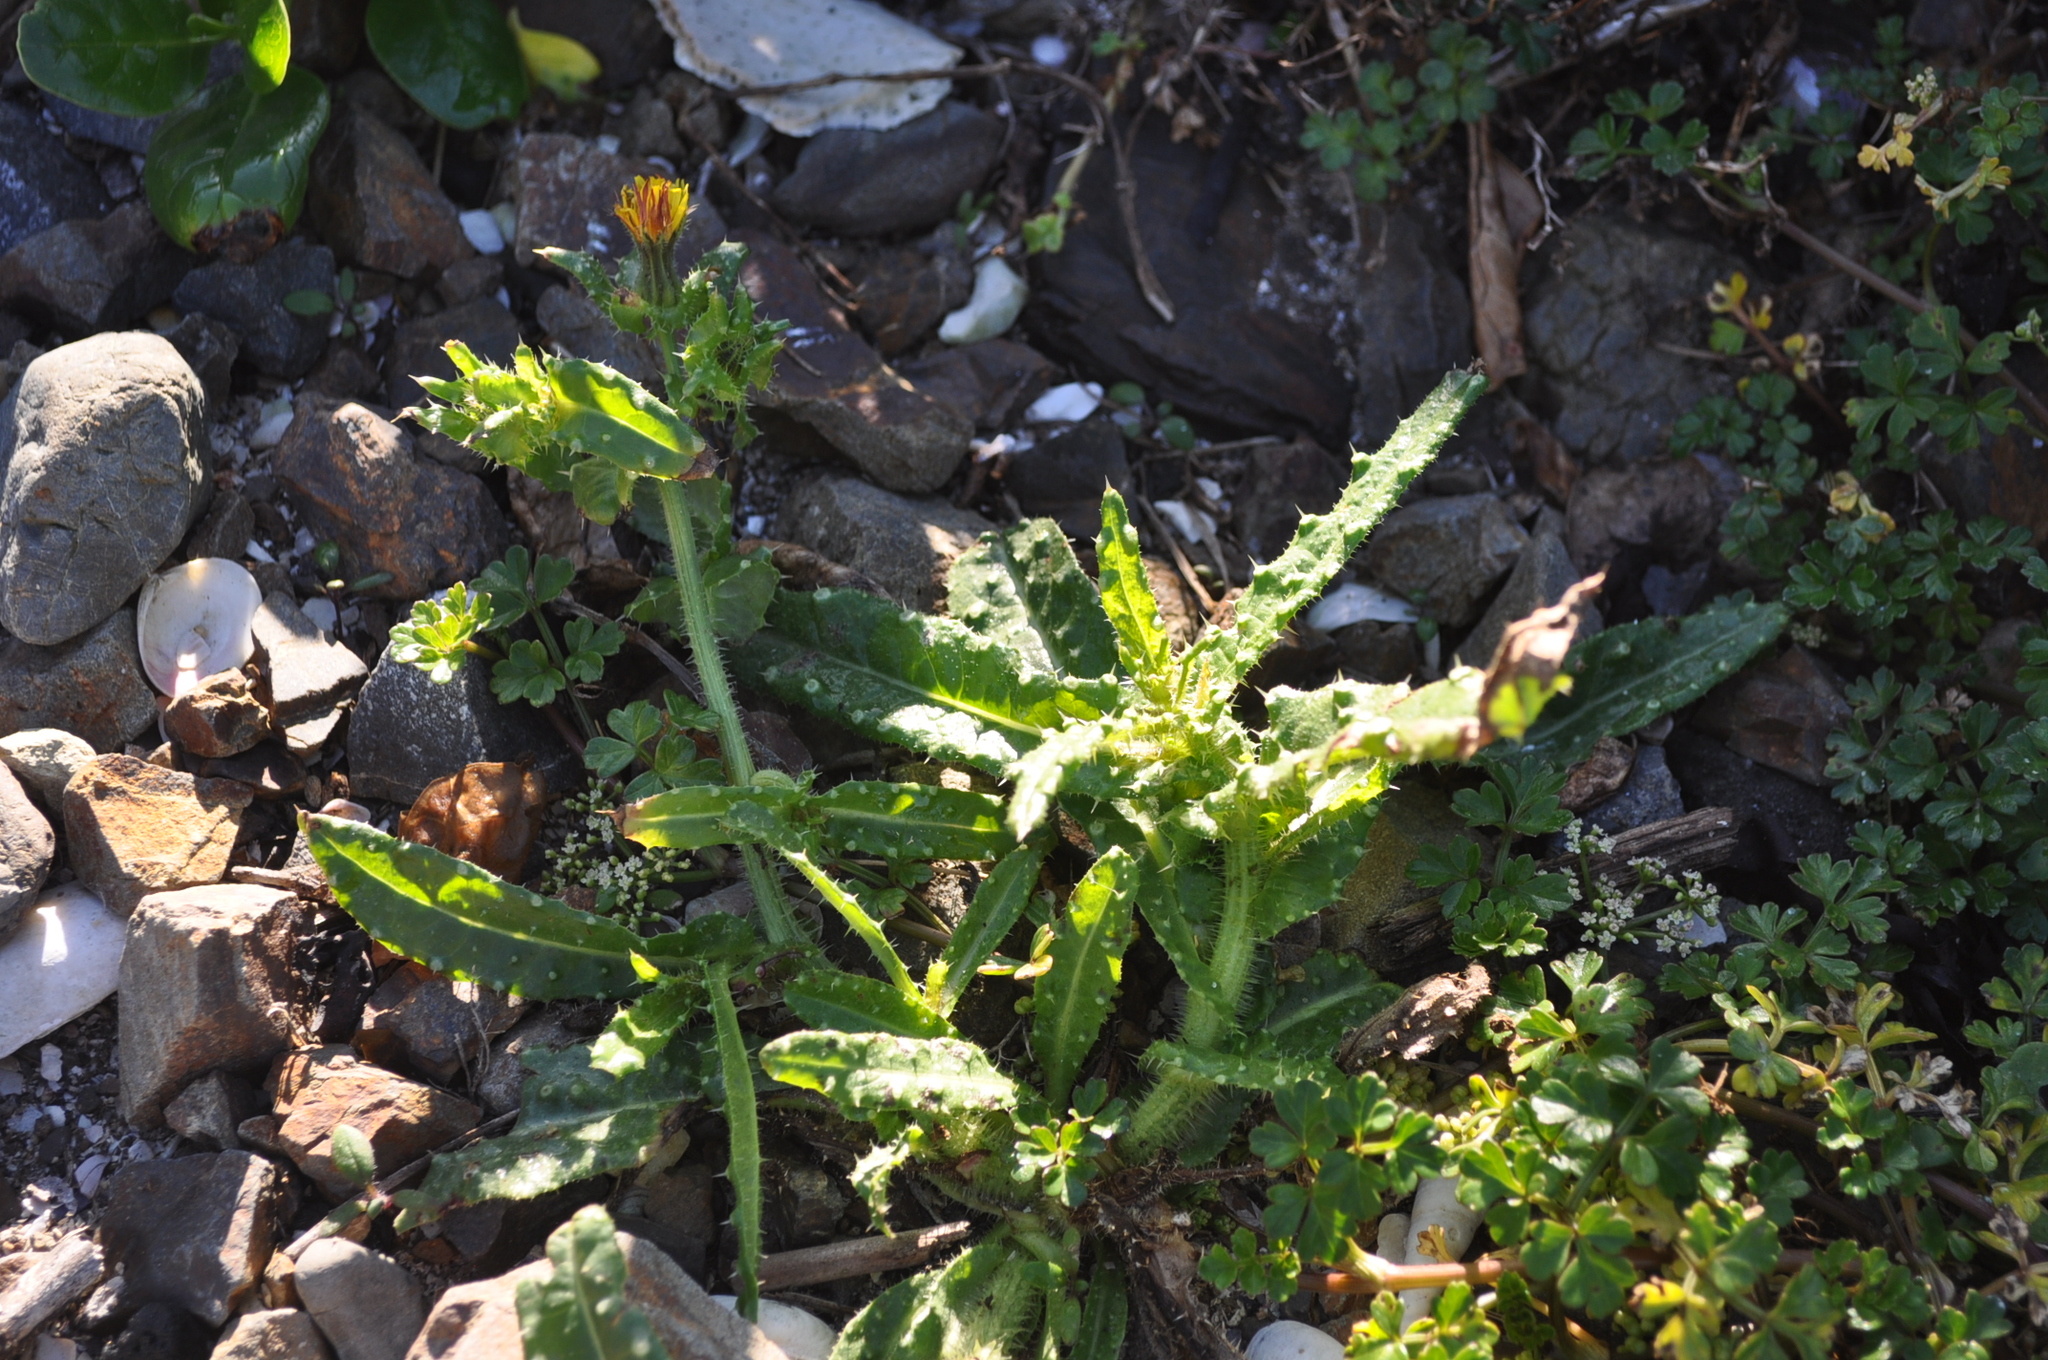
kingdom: Plantae
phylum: Tracheophyta
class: Magnoliopsida
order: Asterales
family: Asteraceae
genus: Helminthotheca
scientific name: Helminthotheca echioides
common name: Ox-tongue
